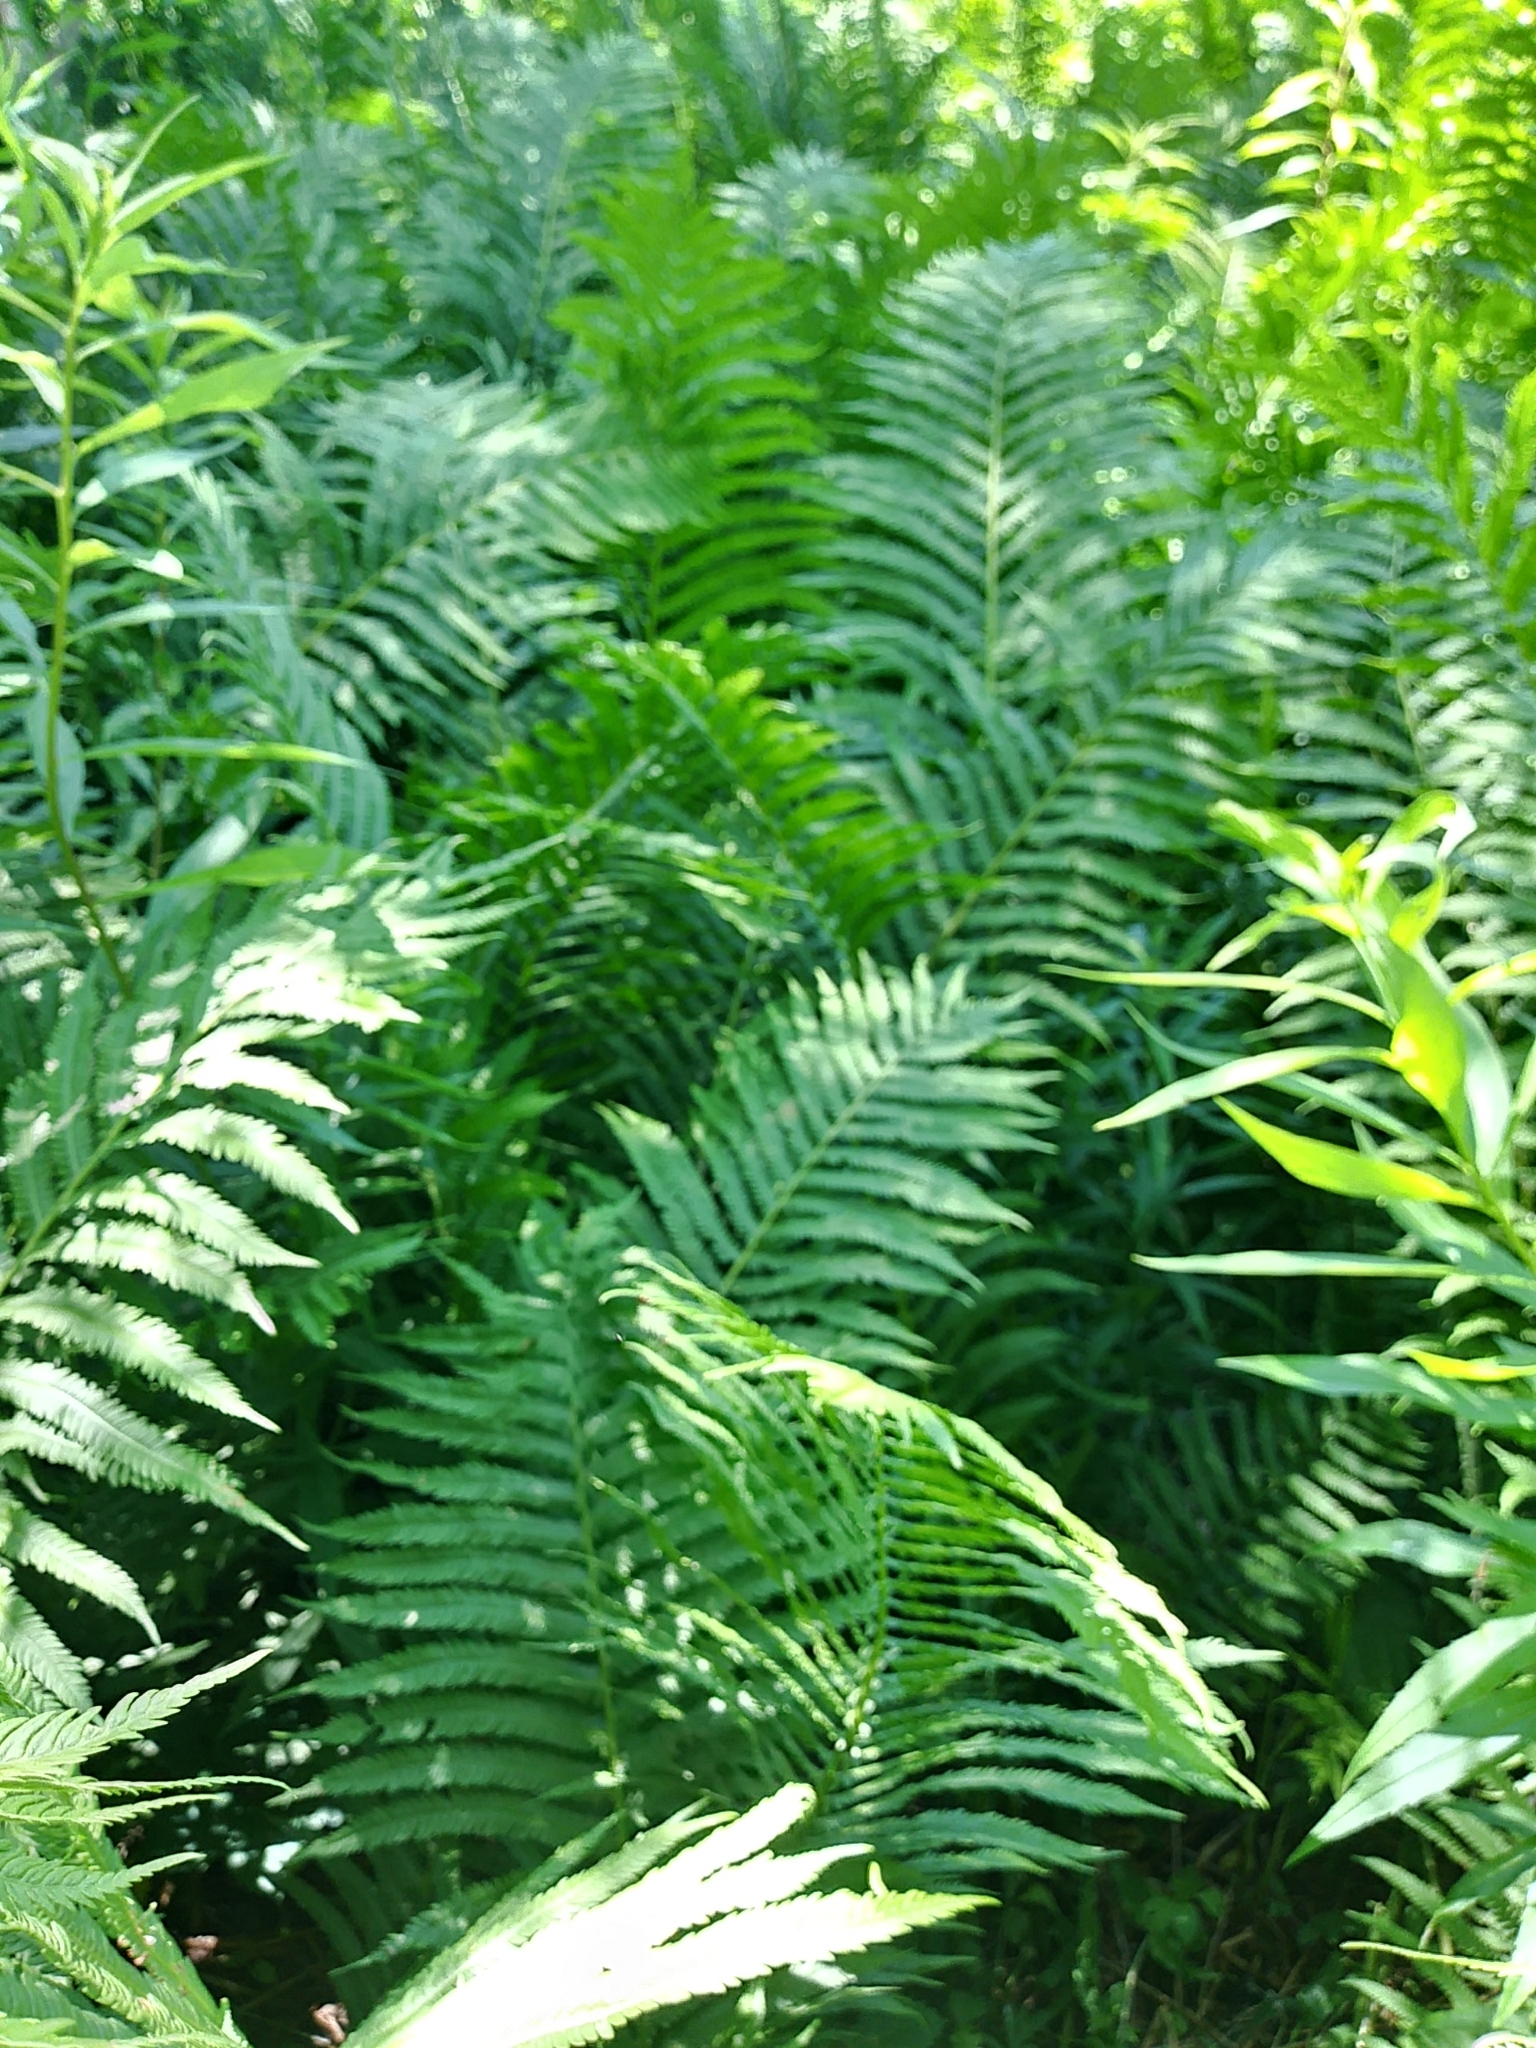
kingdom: Plantae
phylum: Tracheophyta
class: Polypodiopsida
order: Polypodiales
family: Onocleaceae
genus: Matteuccia
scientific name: Matteuccia struthiopteris
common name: Ostrich fern
